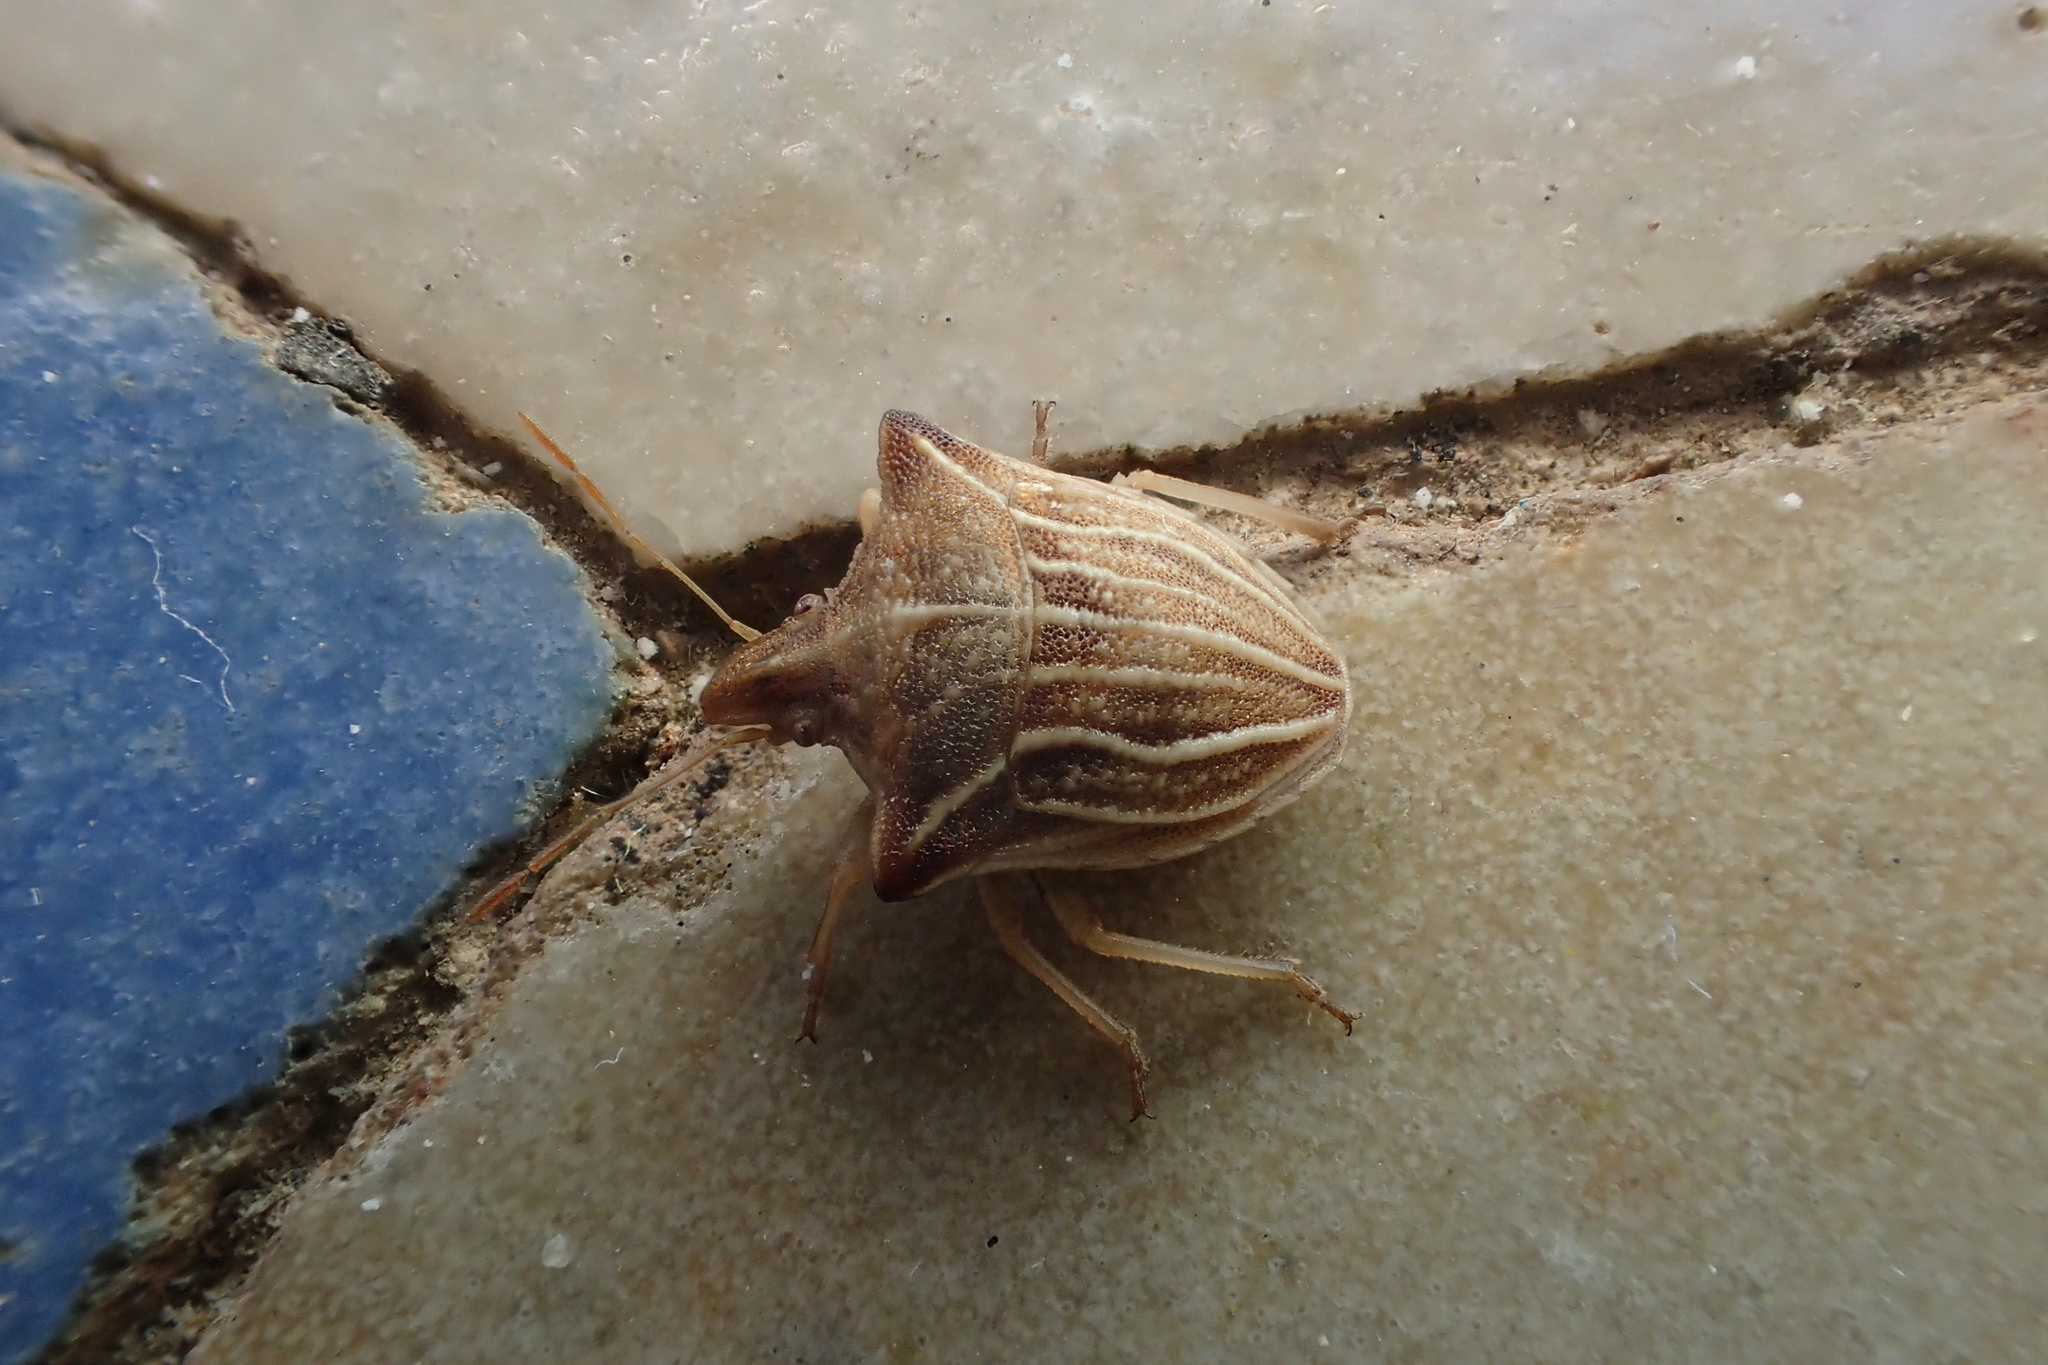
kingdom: Animalia
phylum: Arthropoda
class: Insecta
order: Hemiptera
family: Pentatomidae
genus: Ancyrosoma
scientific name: Ancyrosoma leucogrammes
